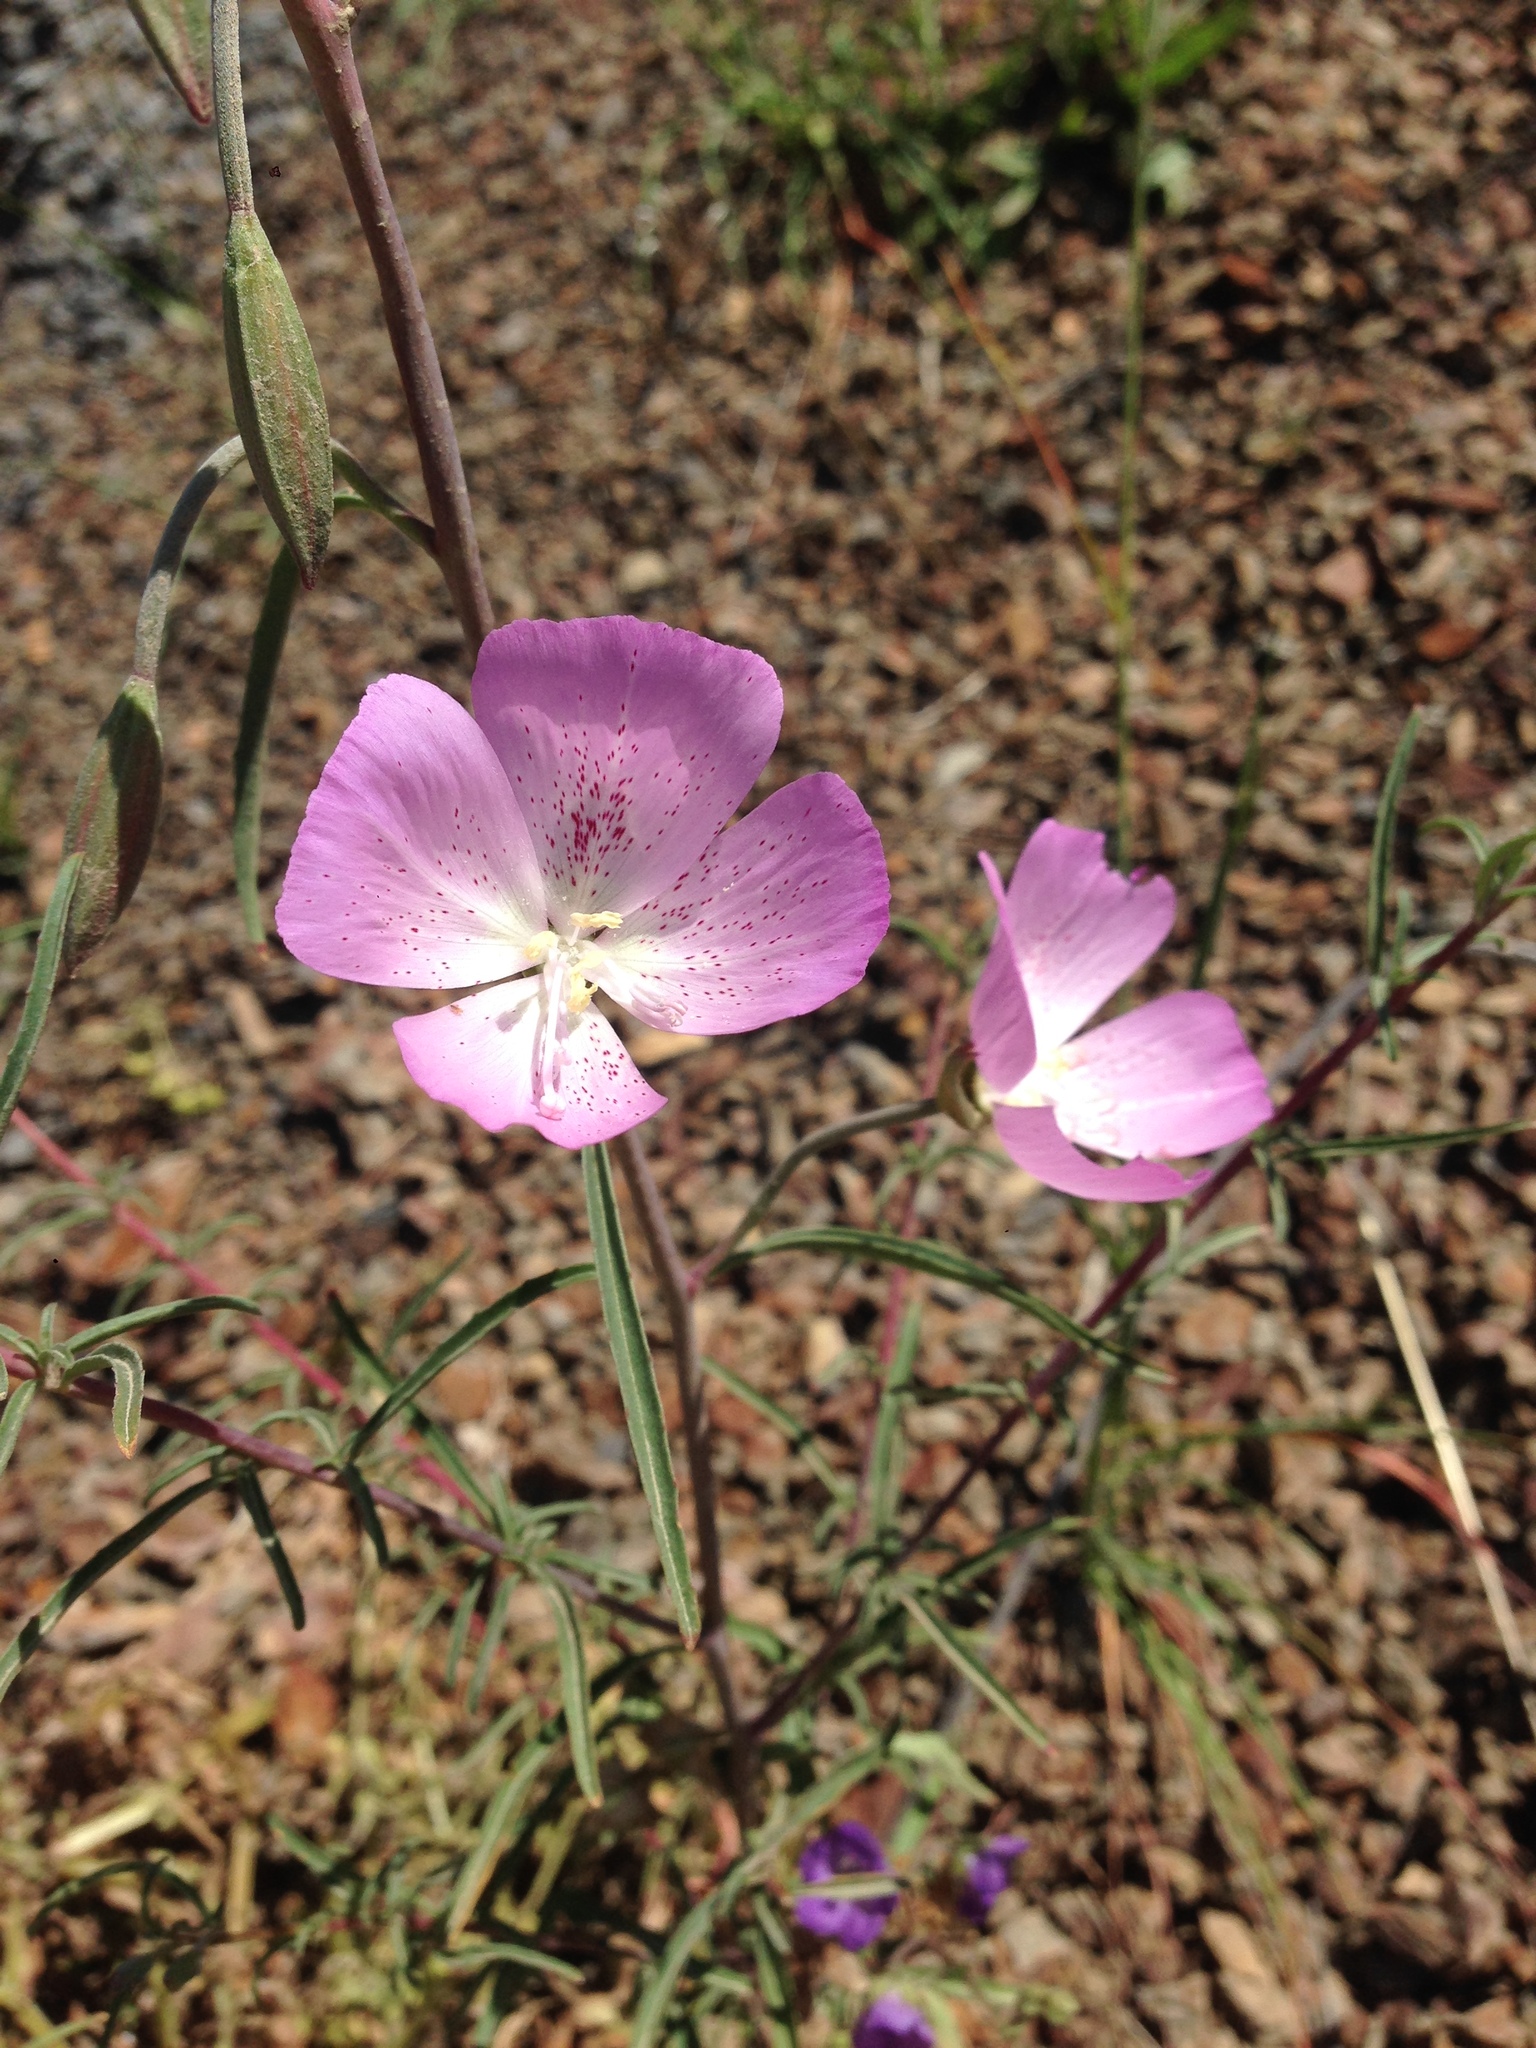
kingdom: Plantae
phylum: Tracheophyta
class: Magnoliopsida
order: Myrtales
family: Onagraceae
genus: Clarkia
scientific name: Clarkia bottae
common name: Punch-bowl godetia
